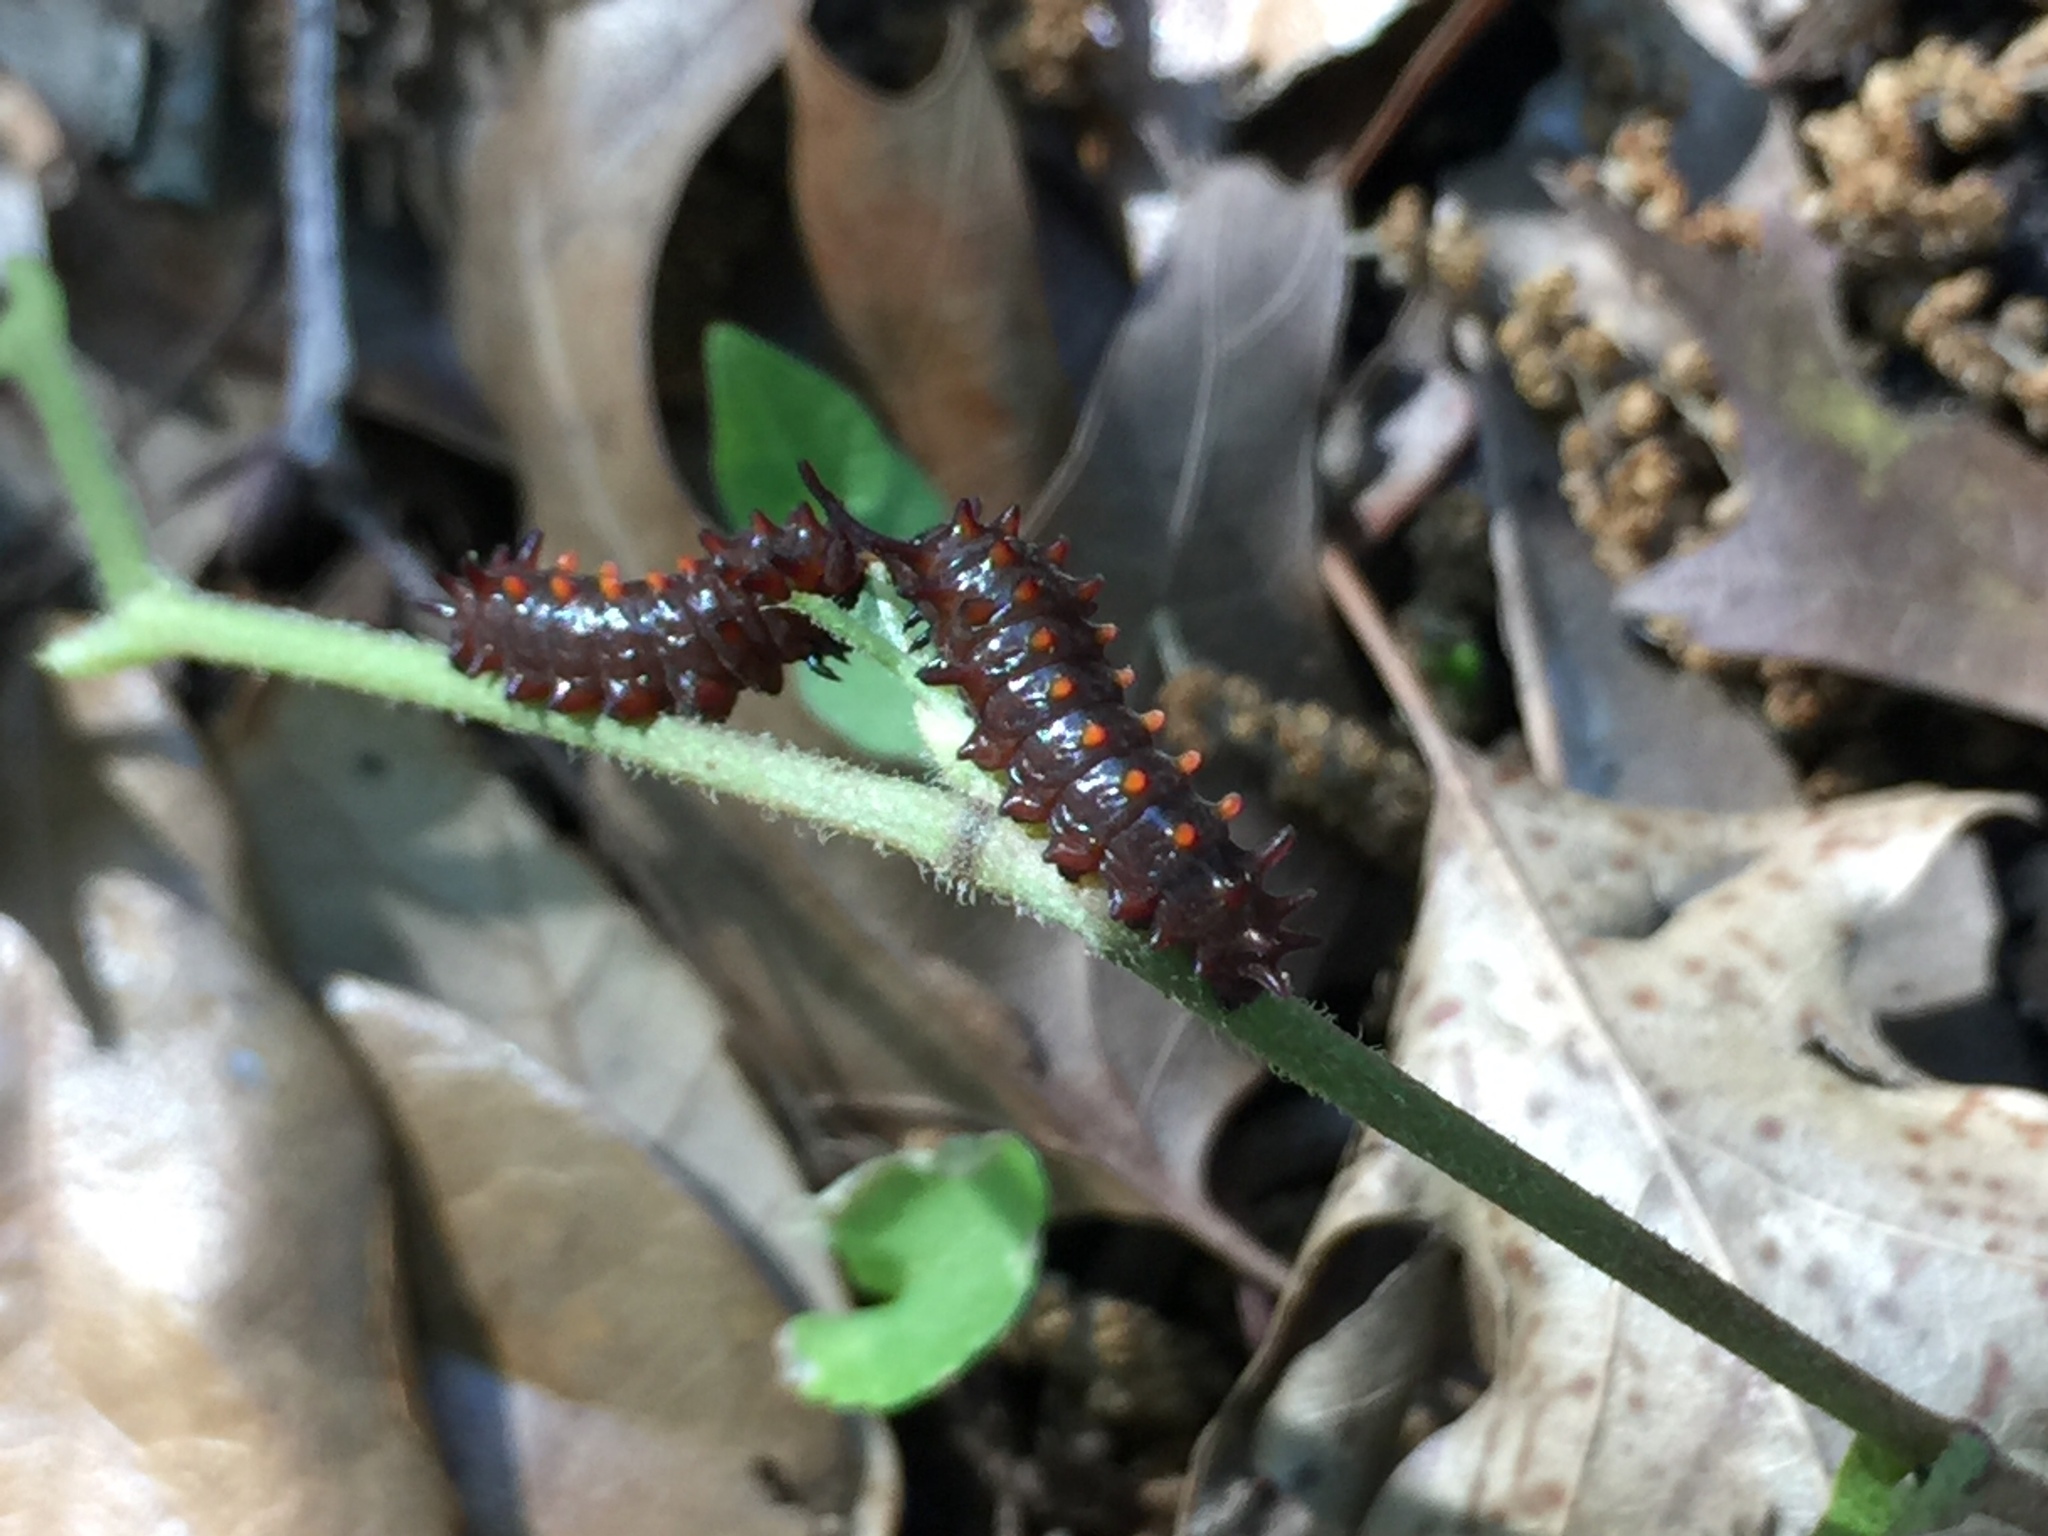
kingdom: Animalia
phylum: Arthropoda
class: Insecta
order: Lepidoptera
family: Papilionidae
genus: Battus
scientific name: Battus philenor
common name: Pipevine swallowtail
